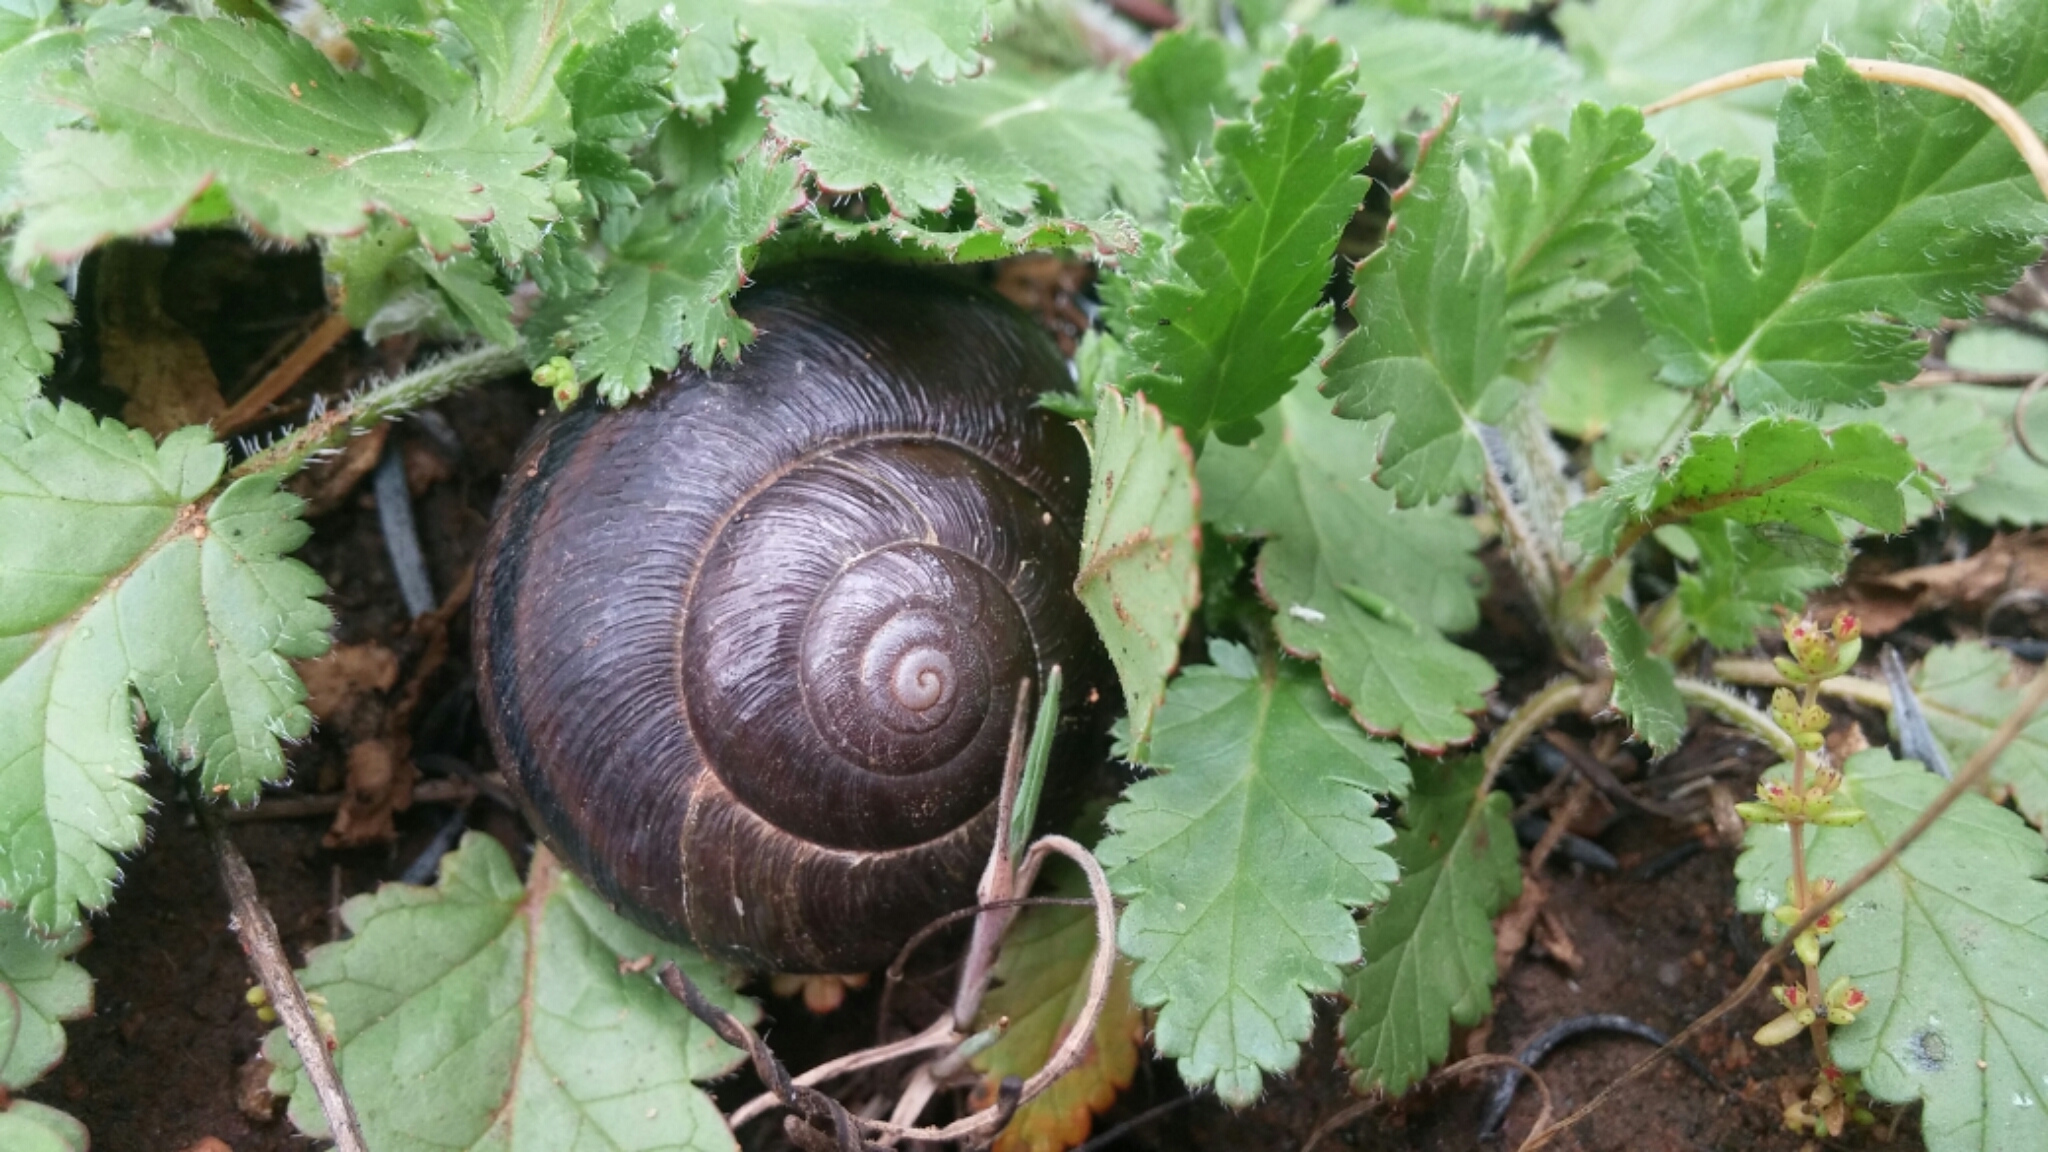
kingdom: Animalia
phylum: Mollusca
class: Gastropoda
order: Stylommatophora
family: Xanthonychidae
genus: Helminthoglypta
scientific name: Helminthoglypta tudiculata
